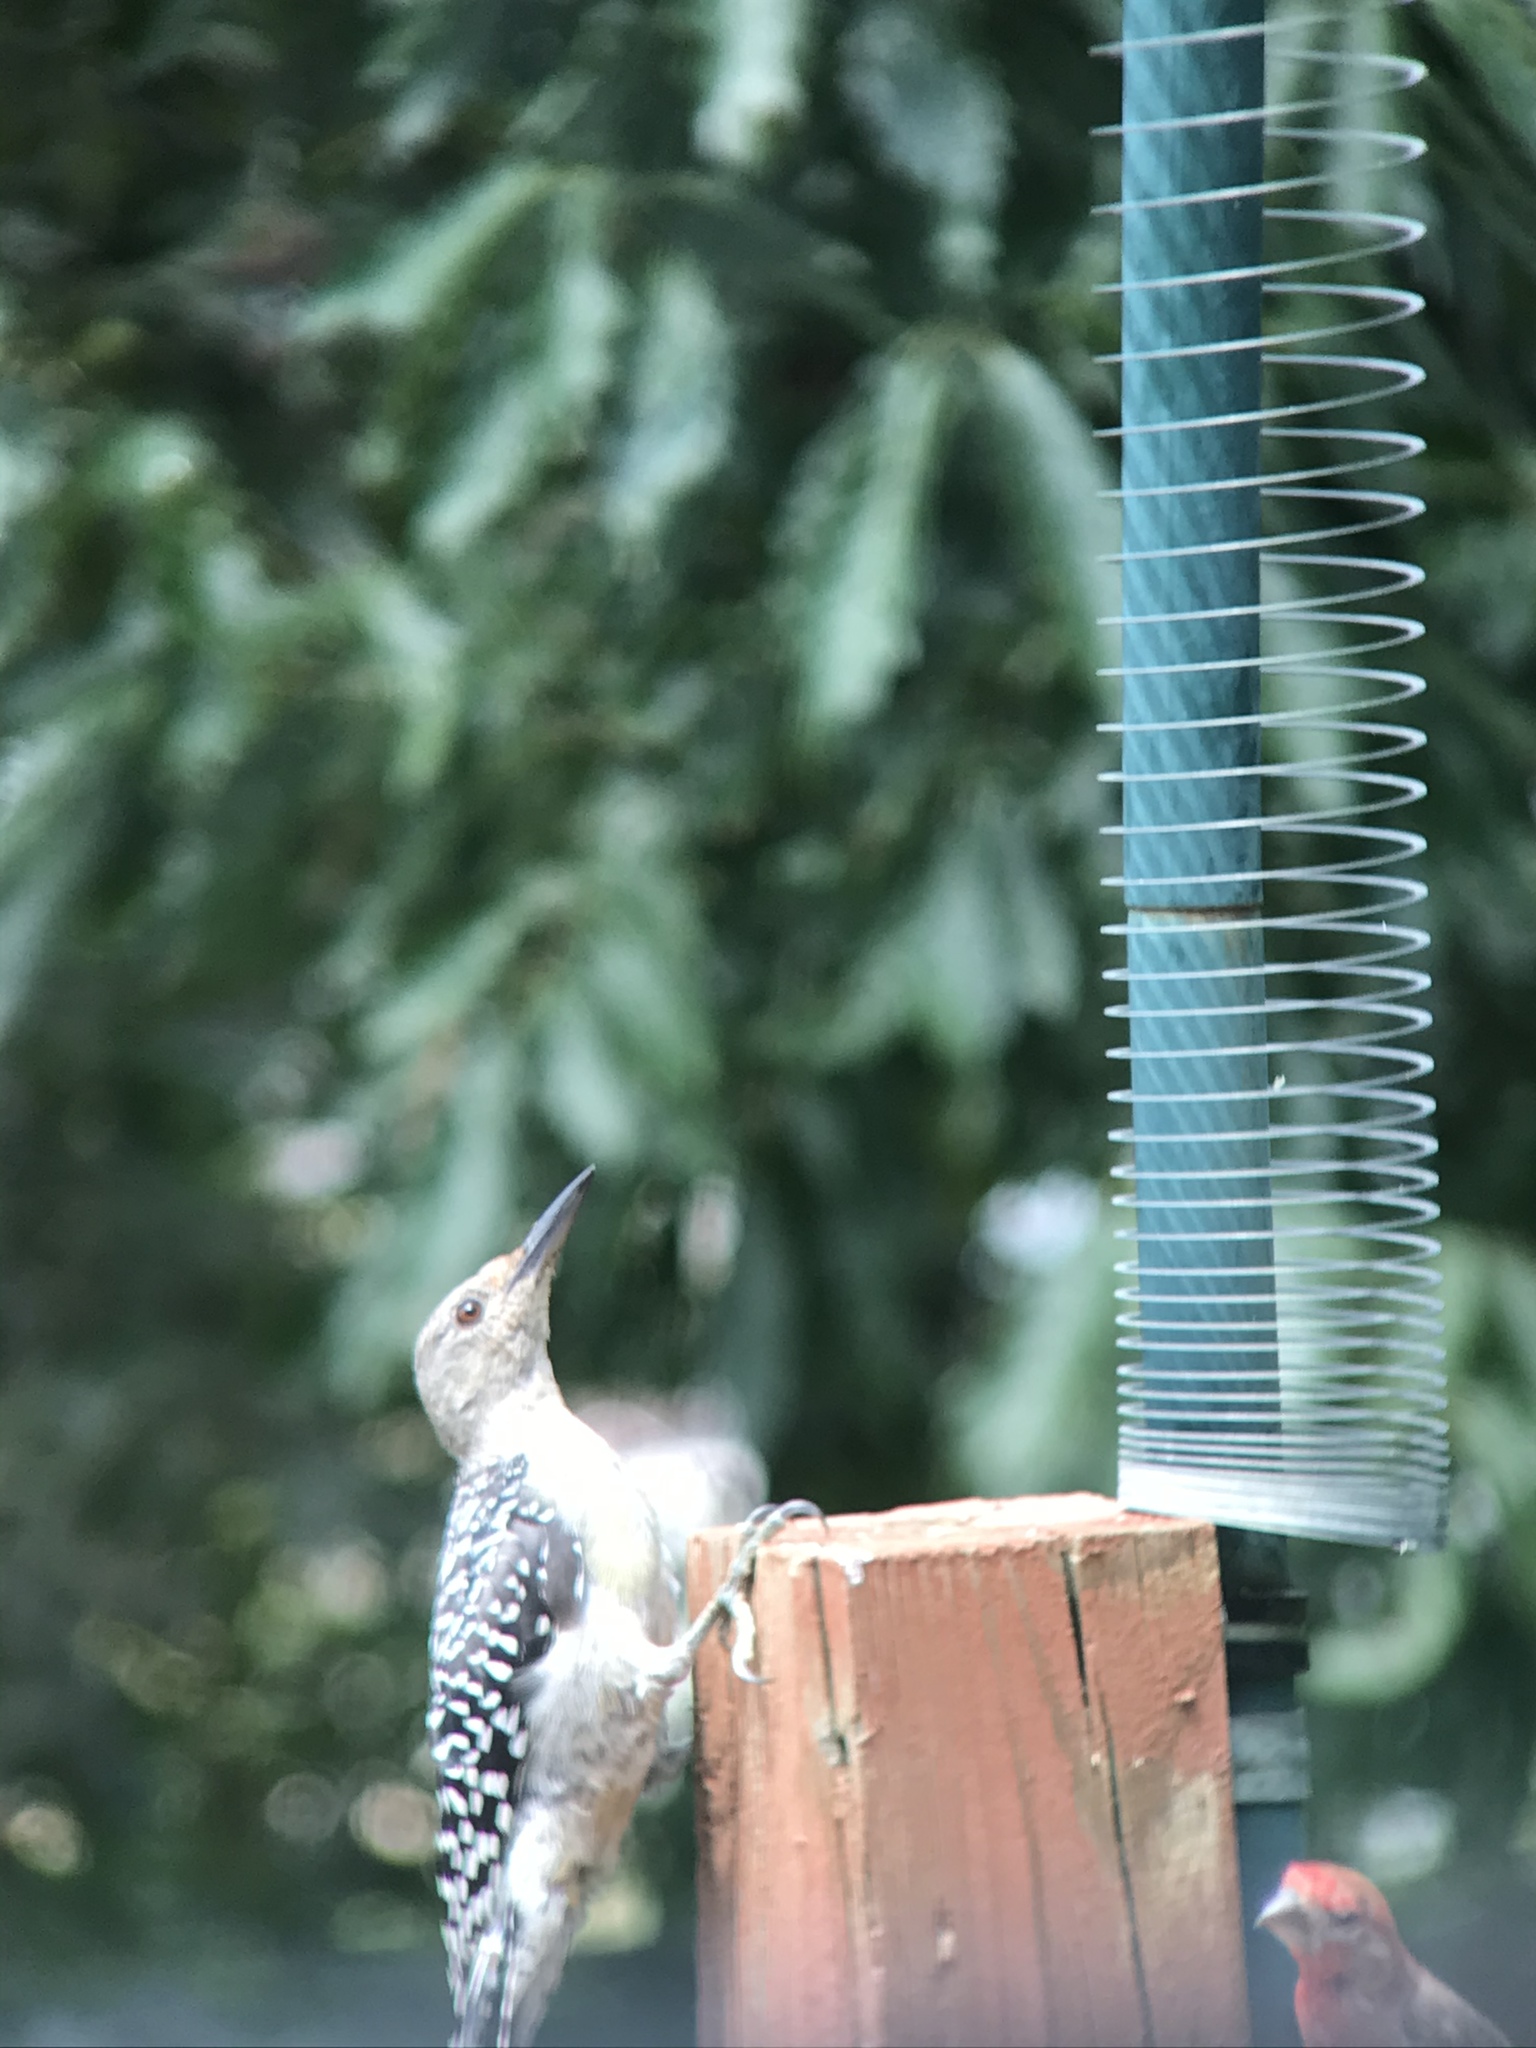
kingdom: Animalia
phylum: Chordata
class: Aves
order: Piciformes
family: Picidae
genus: Melanerpes
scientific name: Melanerpes carolinus
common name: Red-bellied woodpecker
